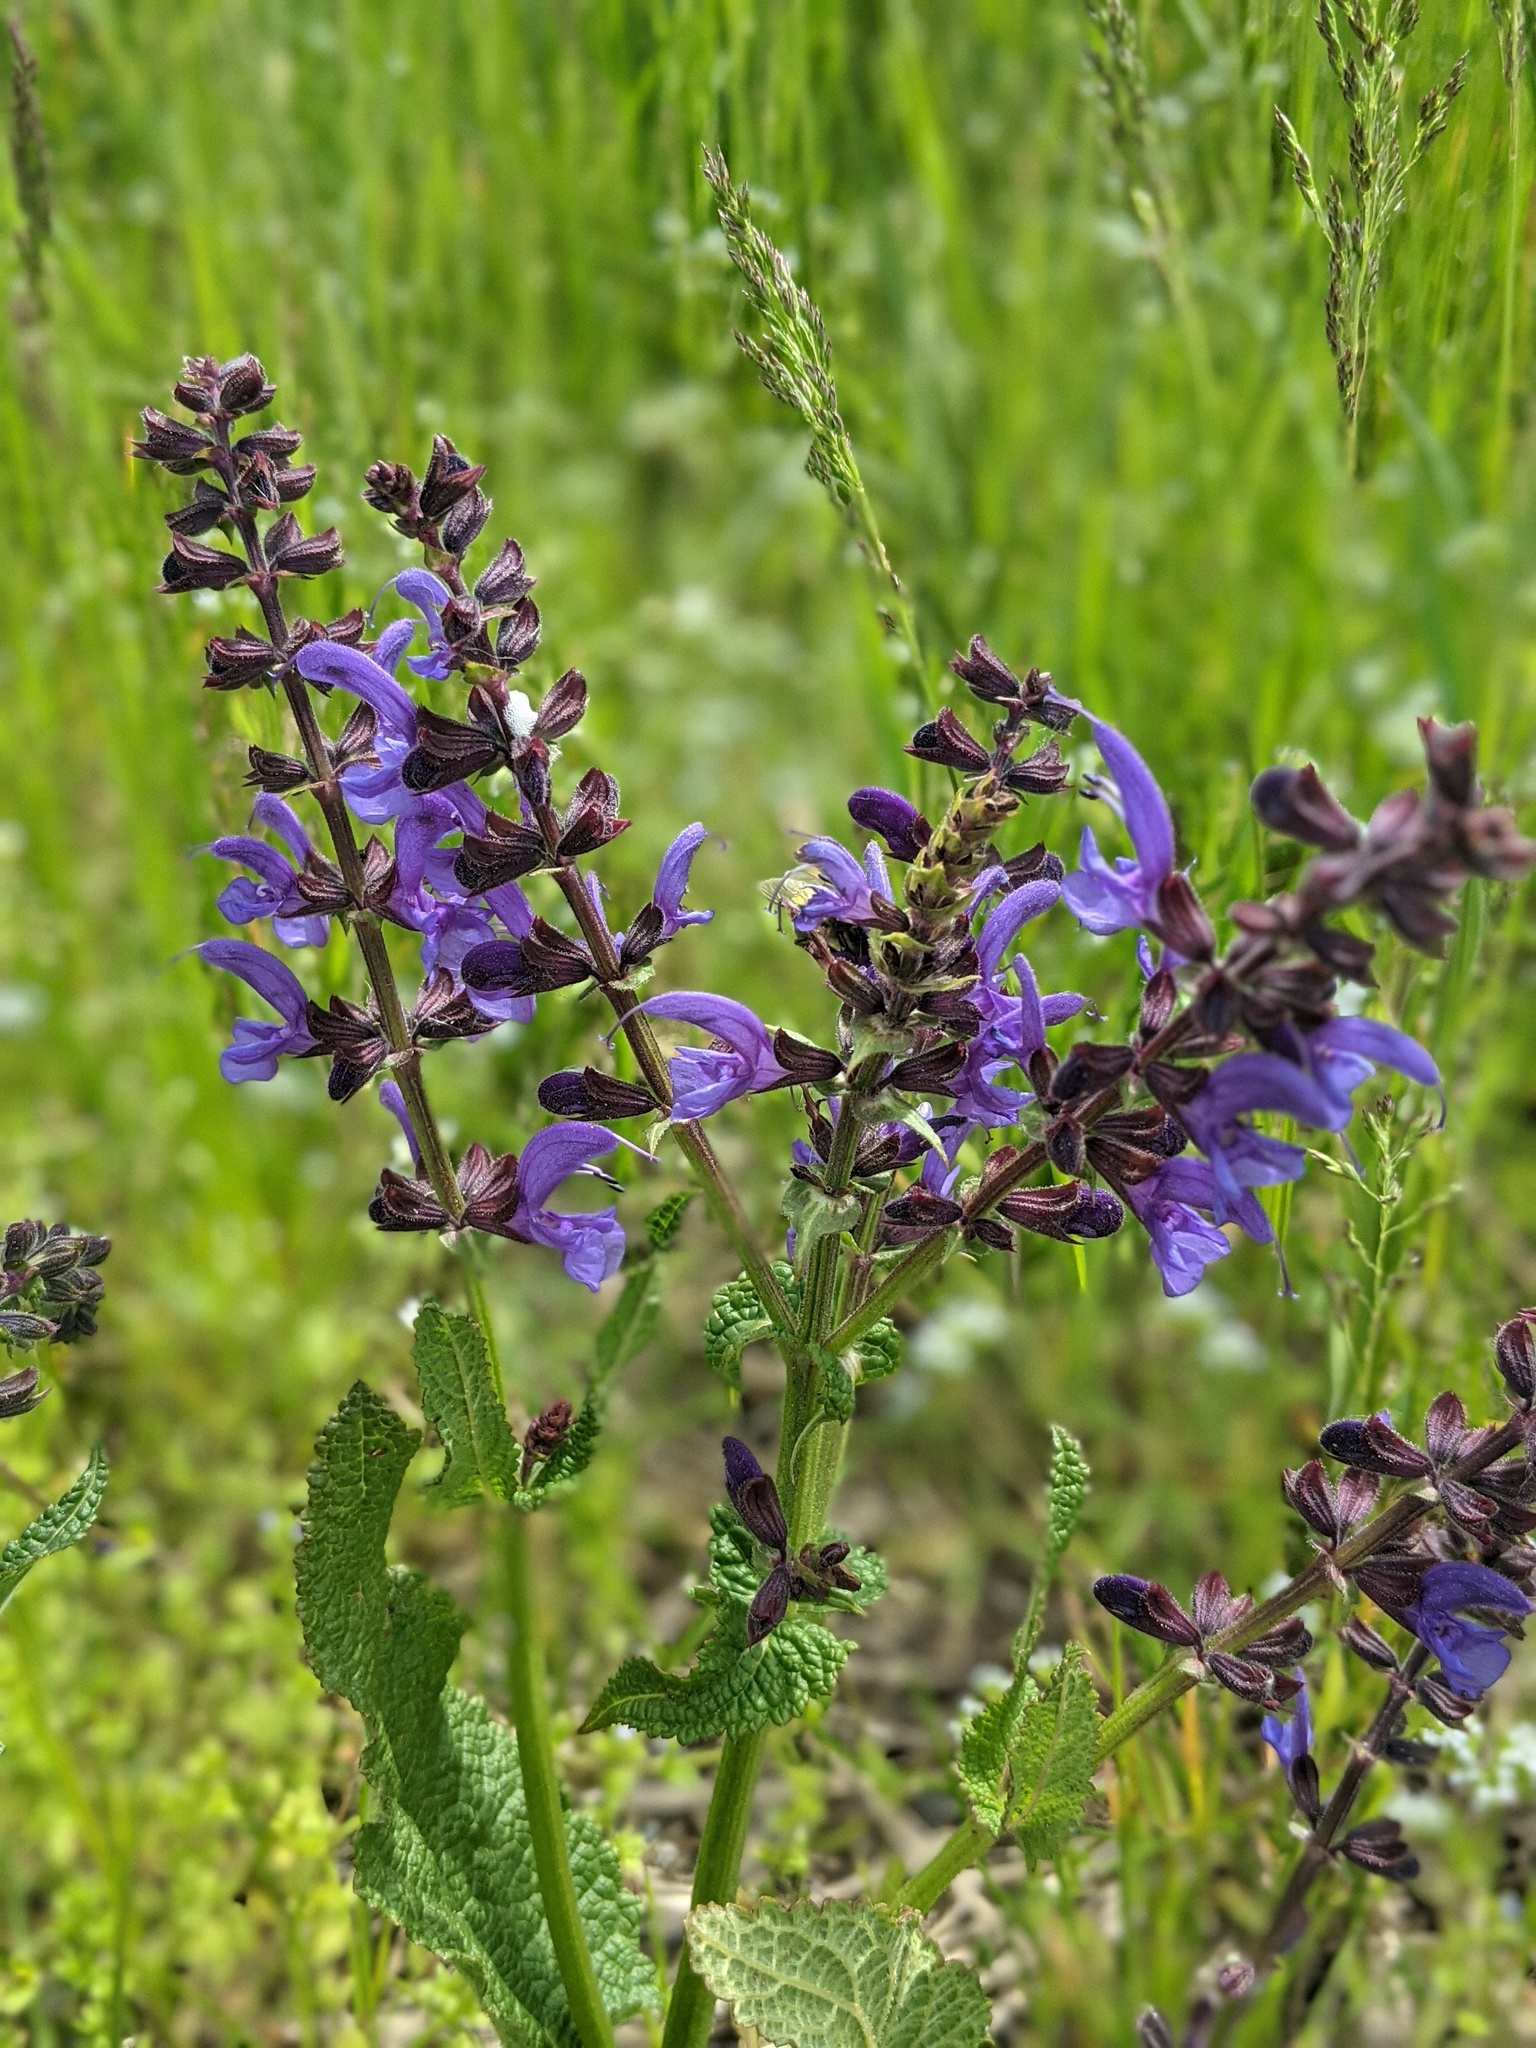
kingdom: Plantae
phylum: Tracheophyta
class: Magnoliopsida
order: Lamiales
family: Lamiaceae
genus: Salvia
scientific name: Salvia pratensis
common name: Meadow sage
